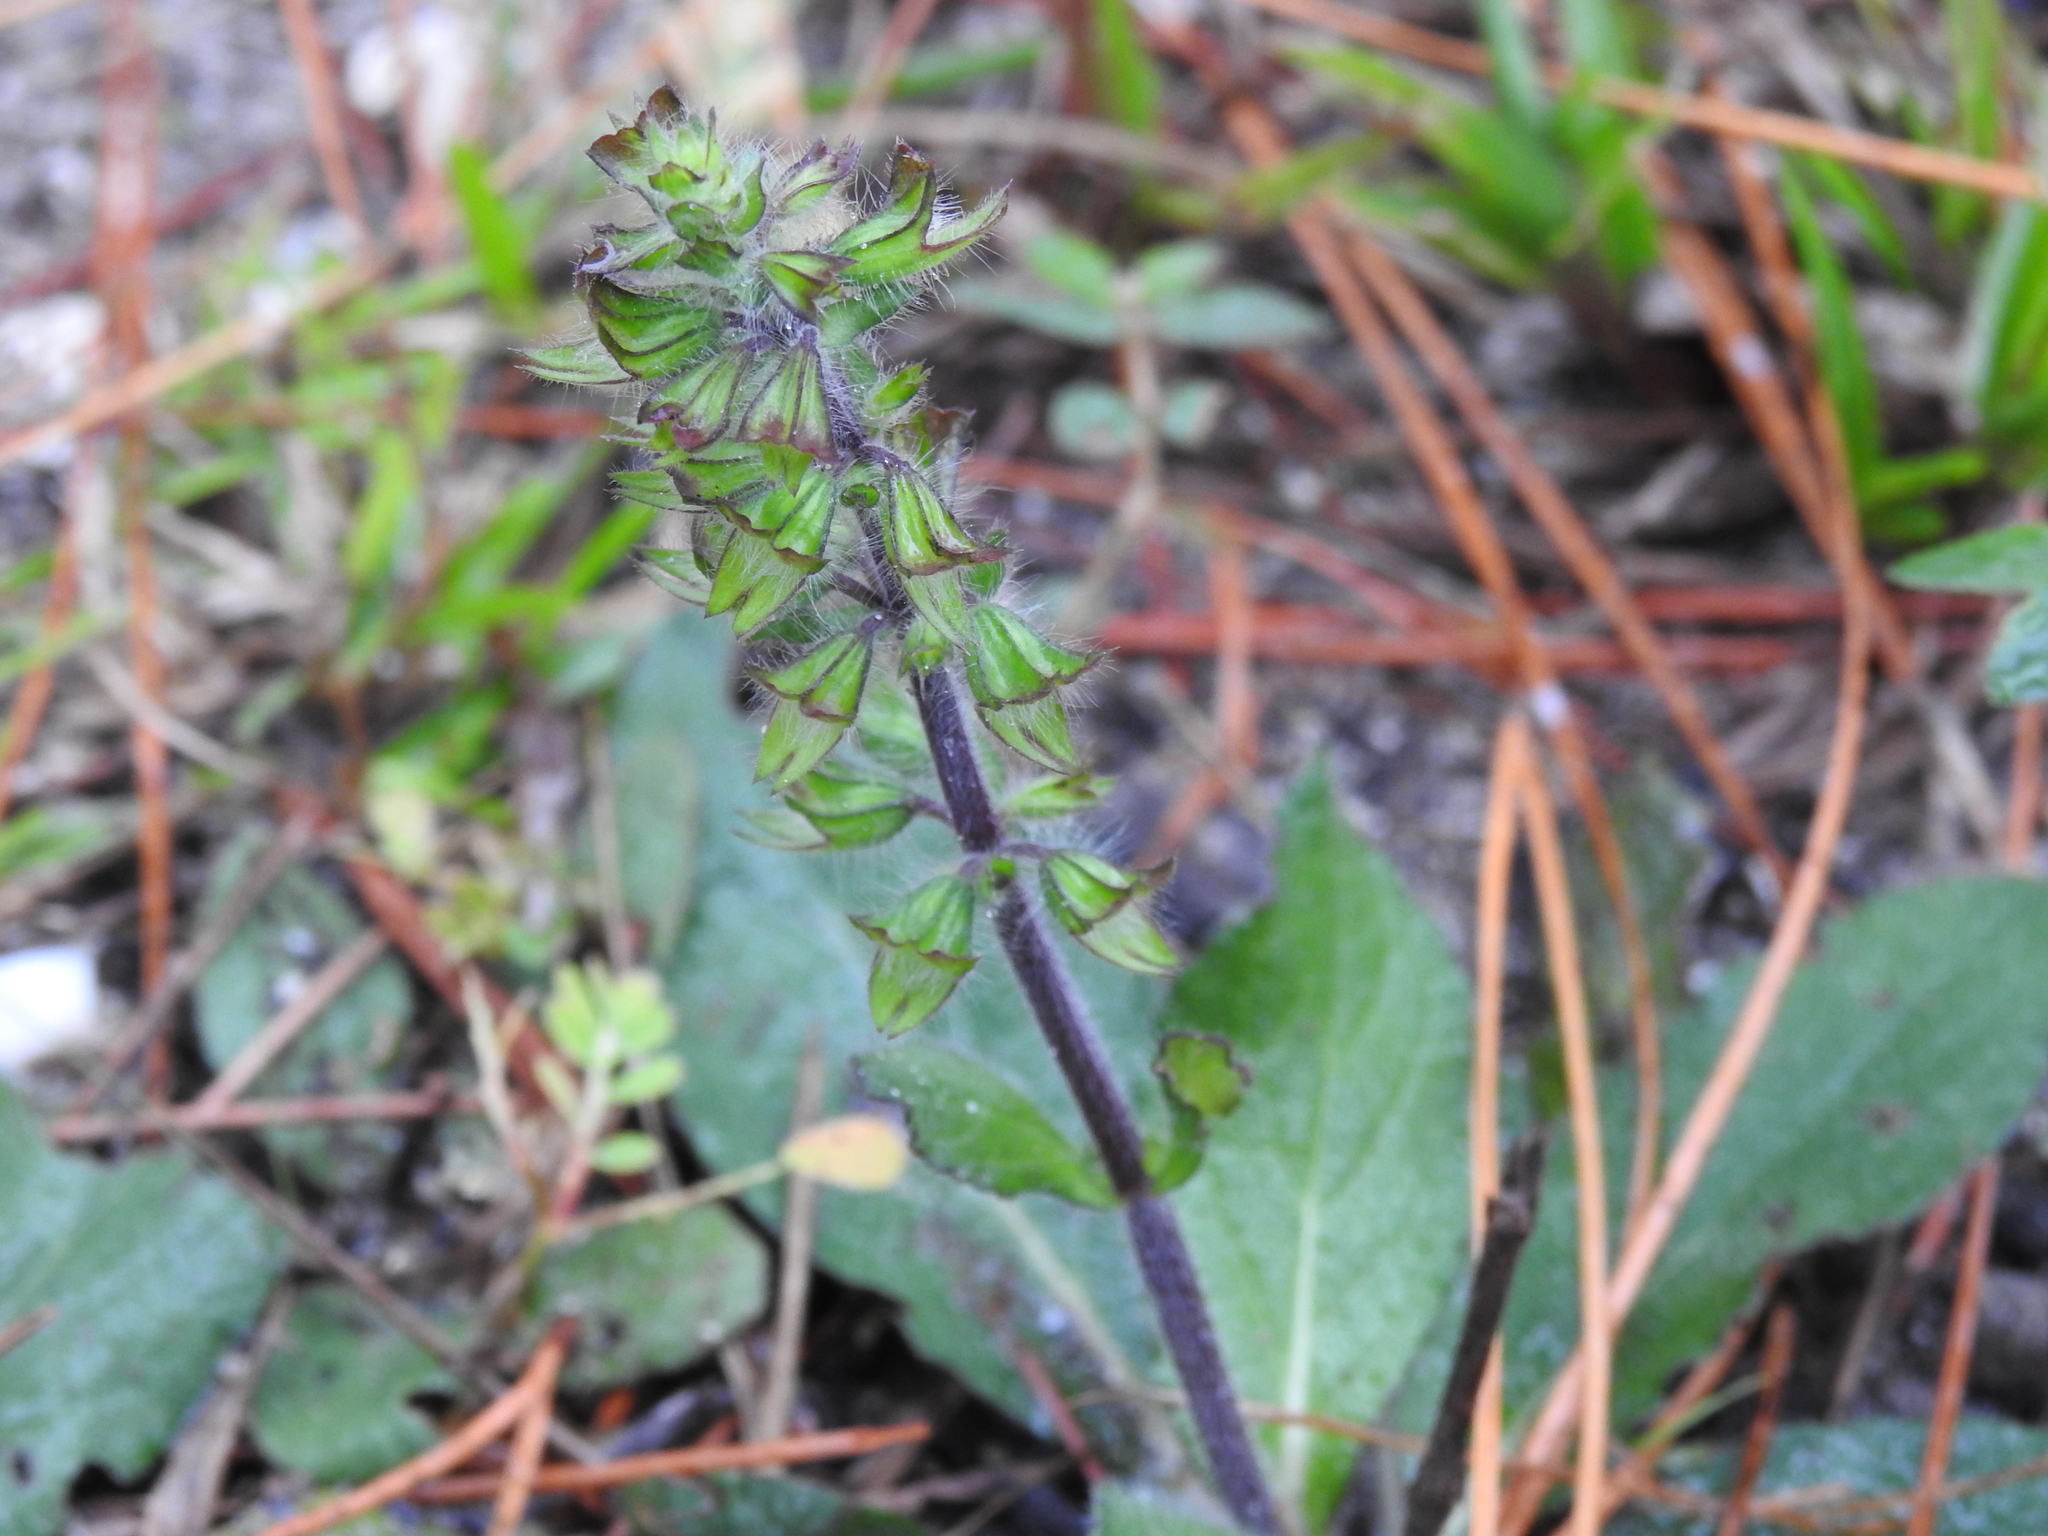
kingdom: Plantae
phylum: Tracheophyta
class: Magnoliopsida
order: Lamiales
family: Lamiaceae
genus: Salvia
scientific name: Salvia lyrata
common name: Cancerweed
